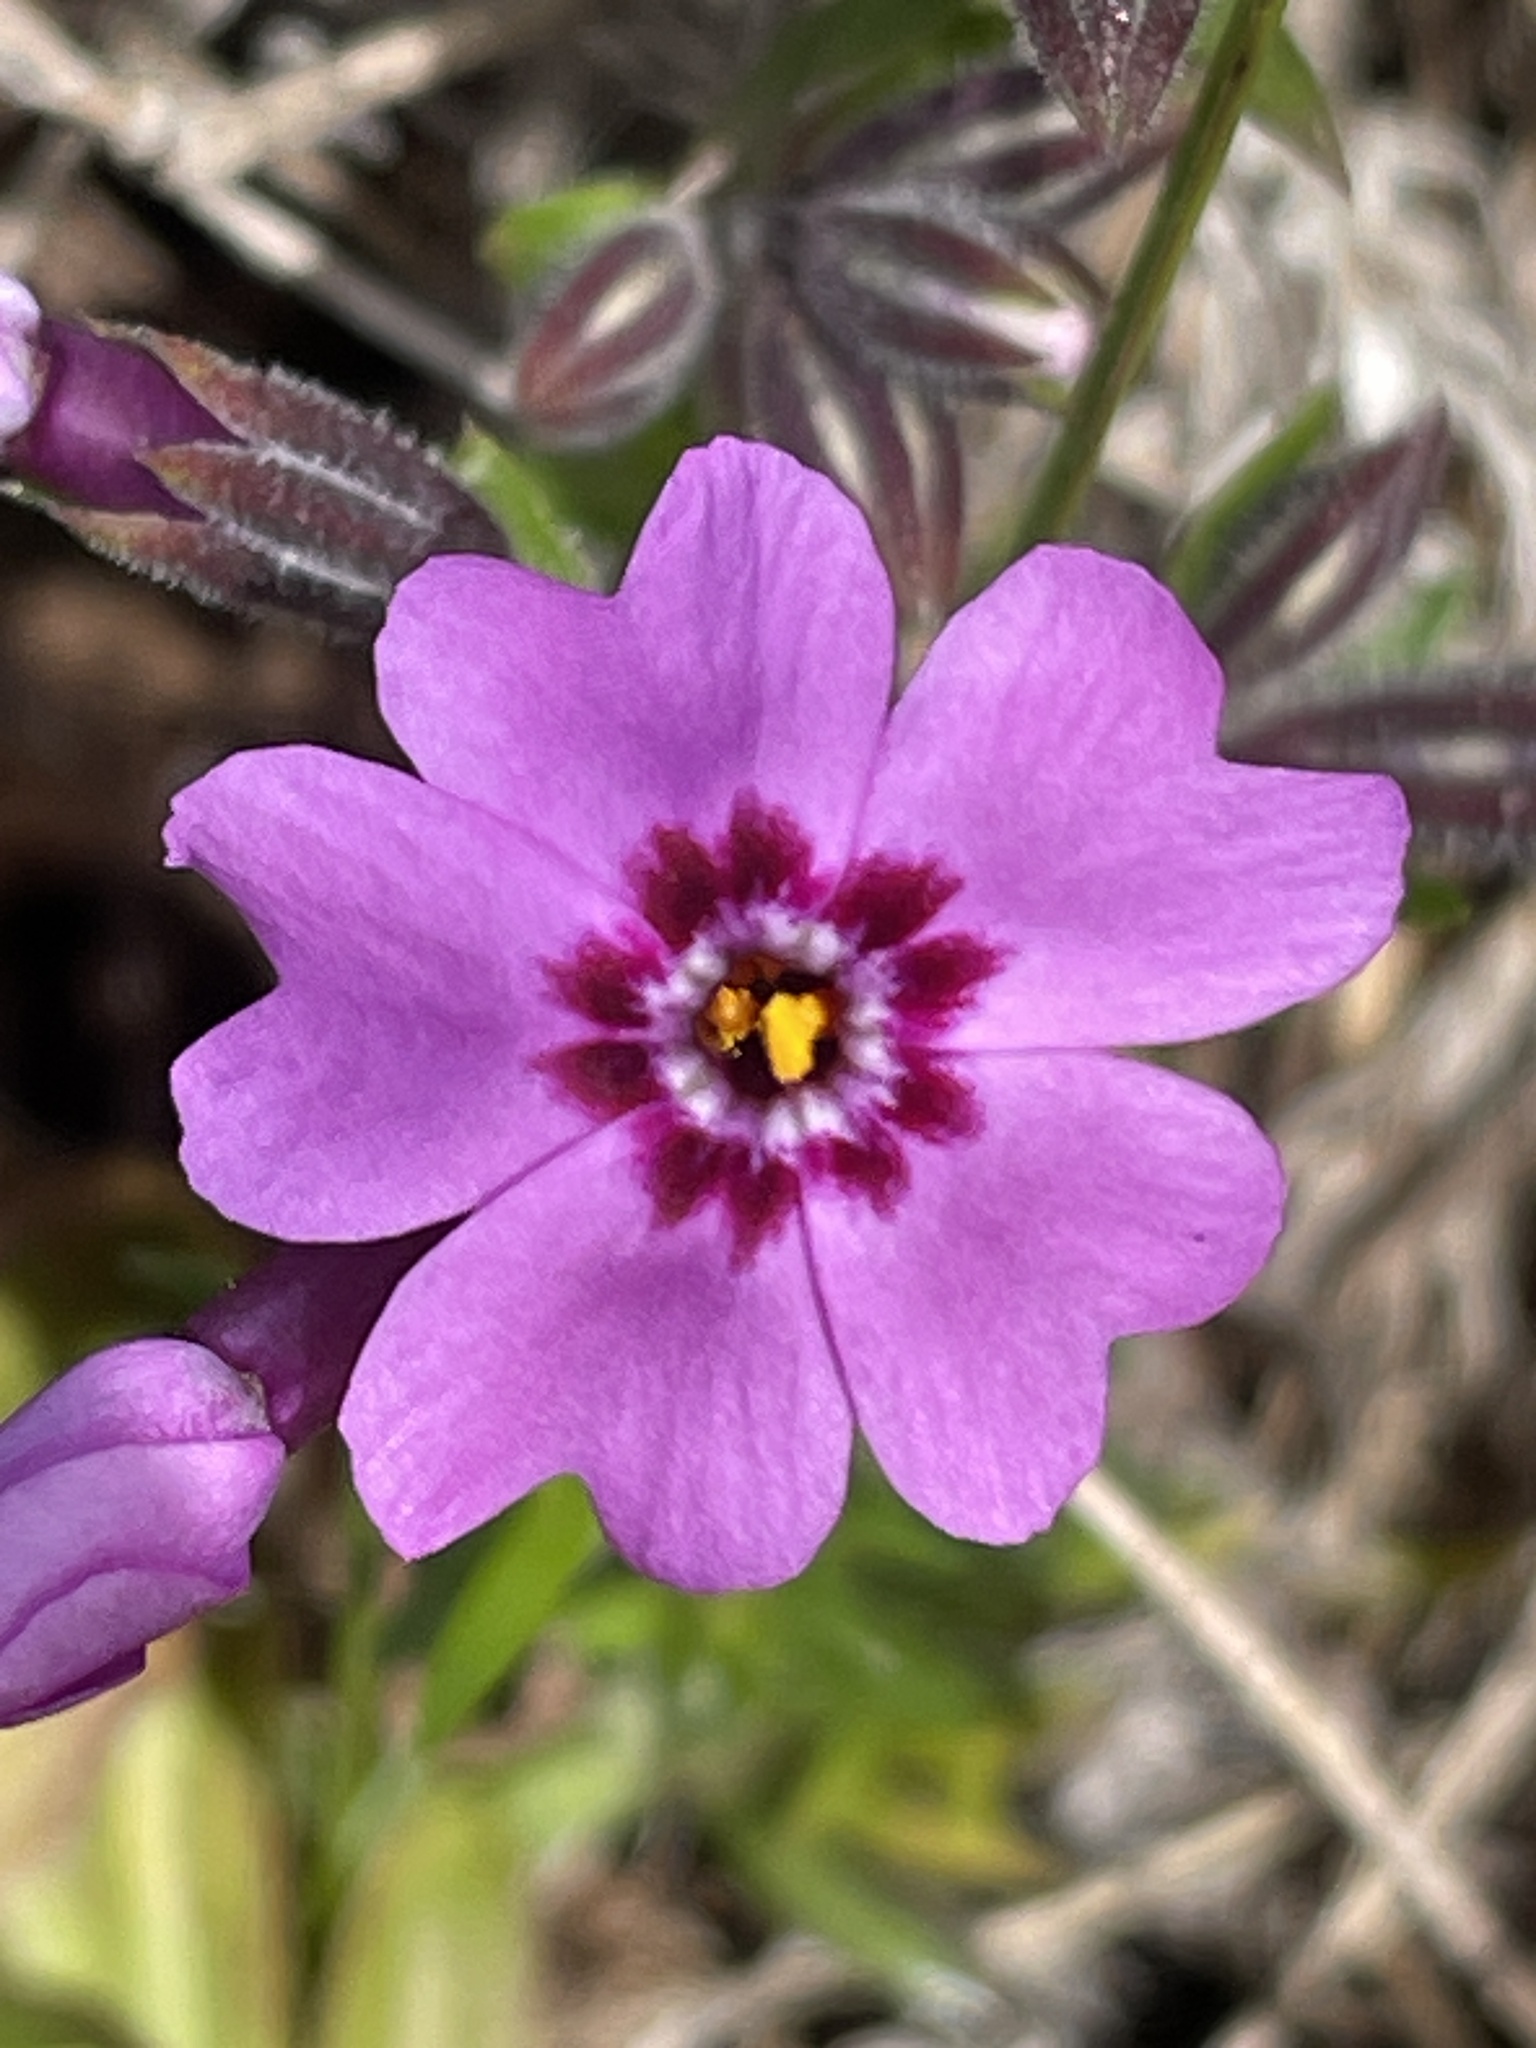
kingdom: Plantae
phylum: Tracheophyta
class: Magnoliopsida
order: Ericales
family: Polemoniaceae
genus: Phlox
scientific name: Phlox subulata
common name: Moss phlox
